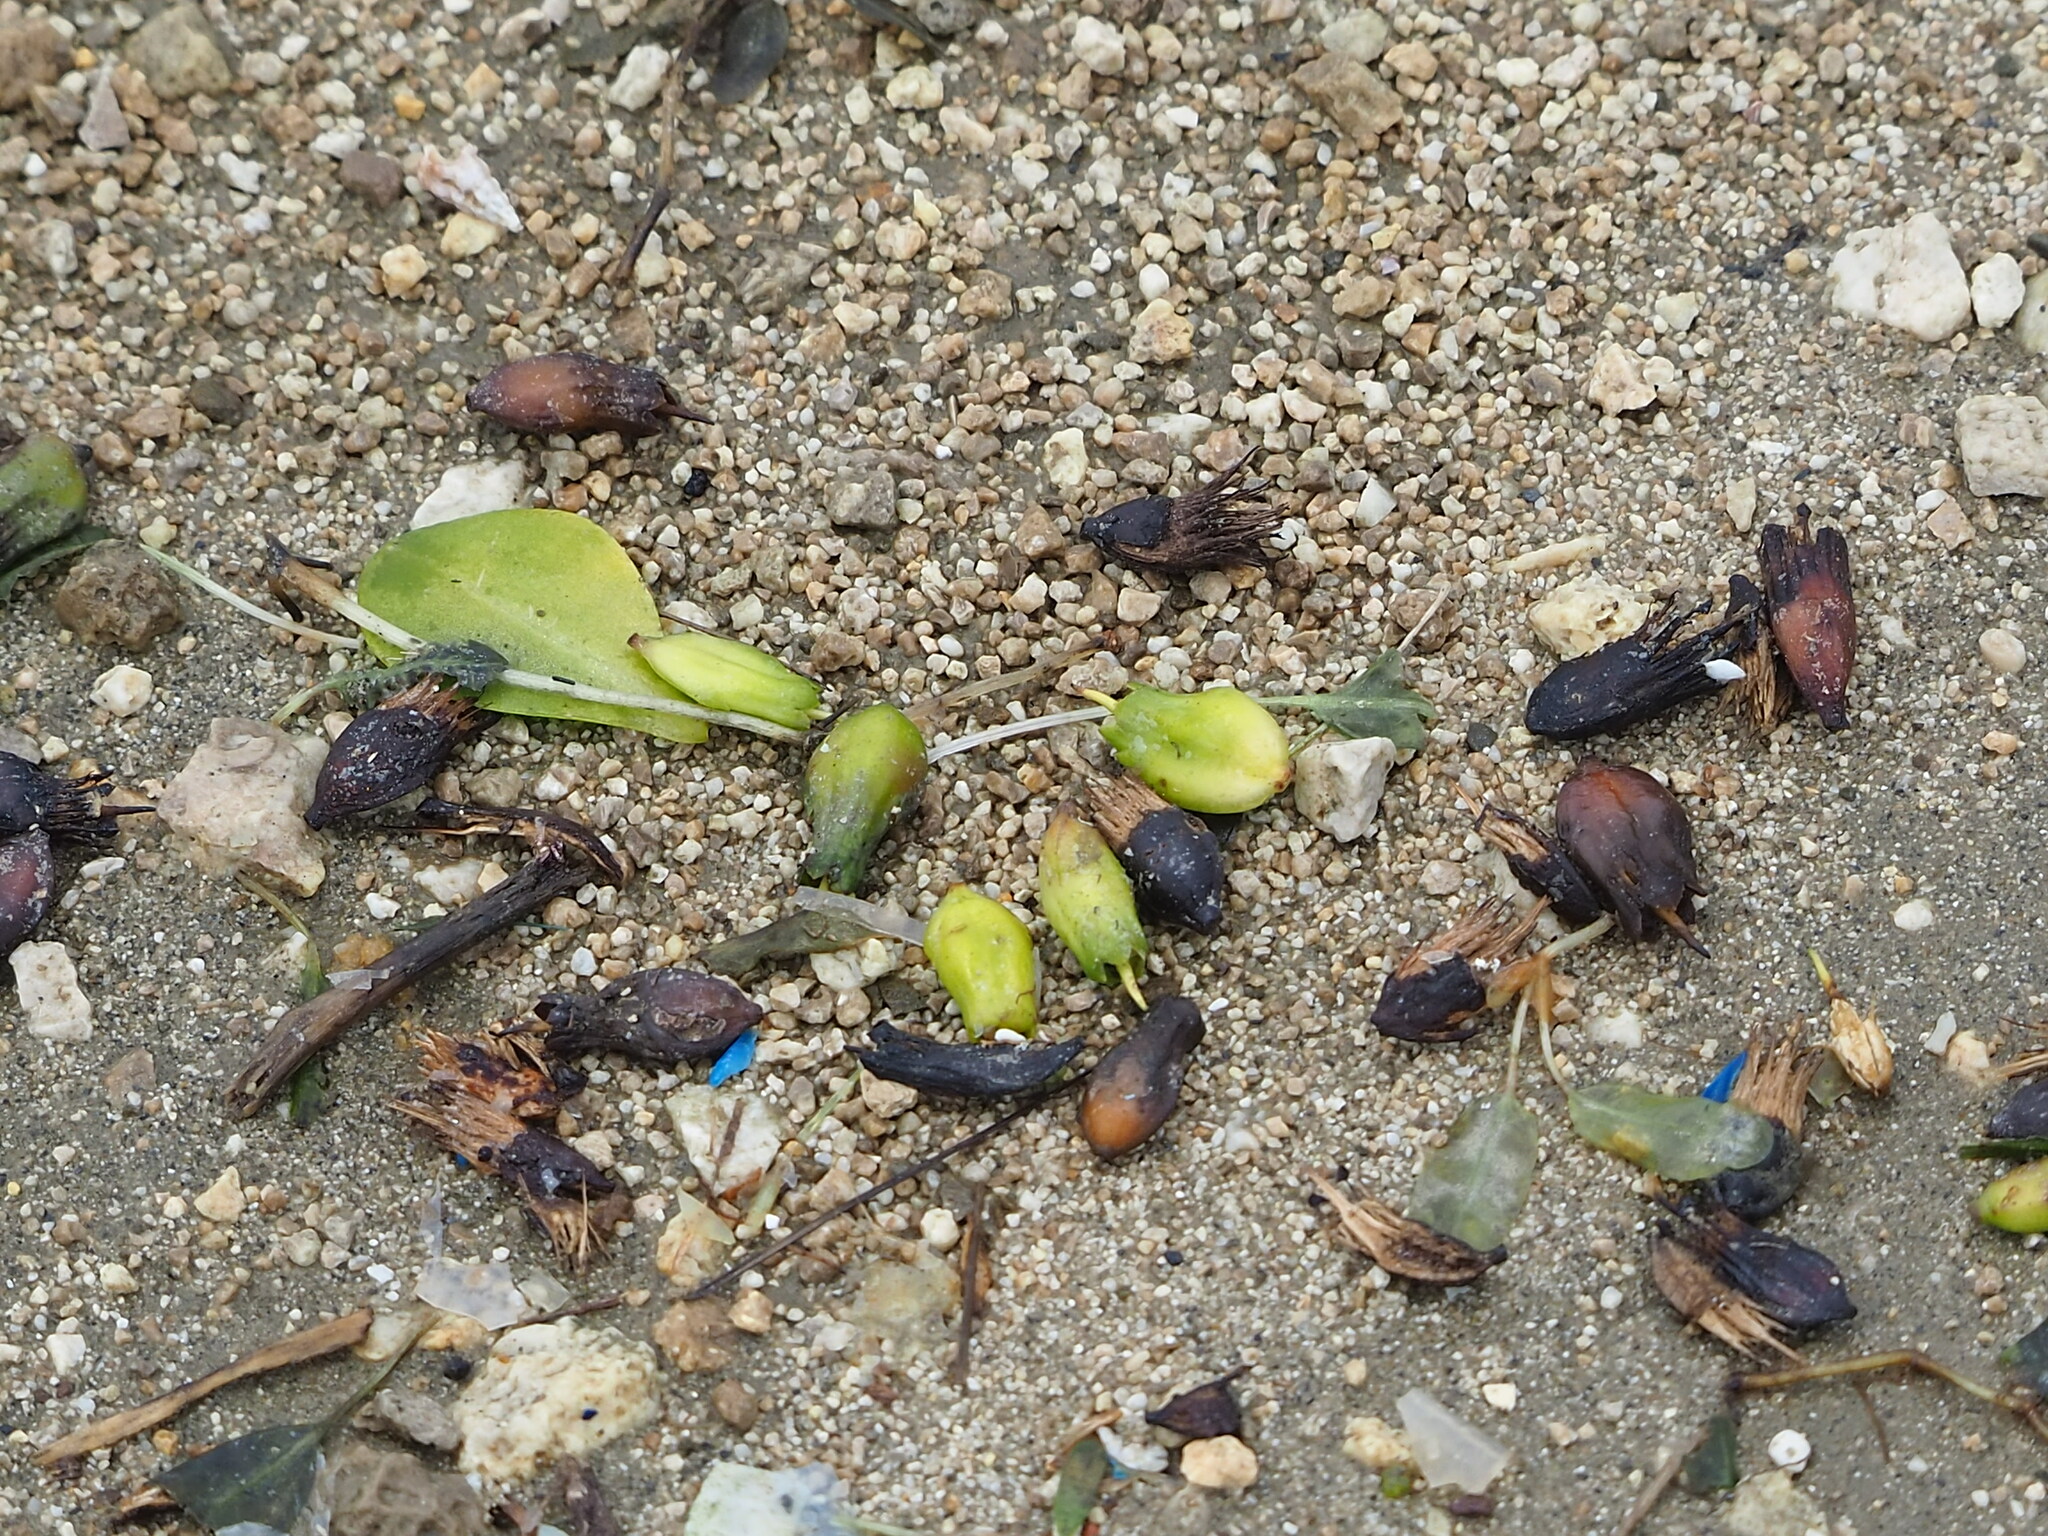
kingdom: Plantae
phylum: Tracheophyta
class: Magnoliopsida
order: Myrtales
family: Combretaceae
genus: Lumnitzera
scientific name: Lumnitzera racemosa
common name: White-flowered black mangrove
